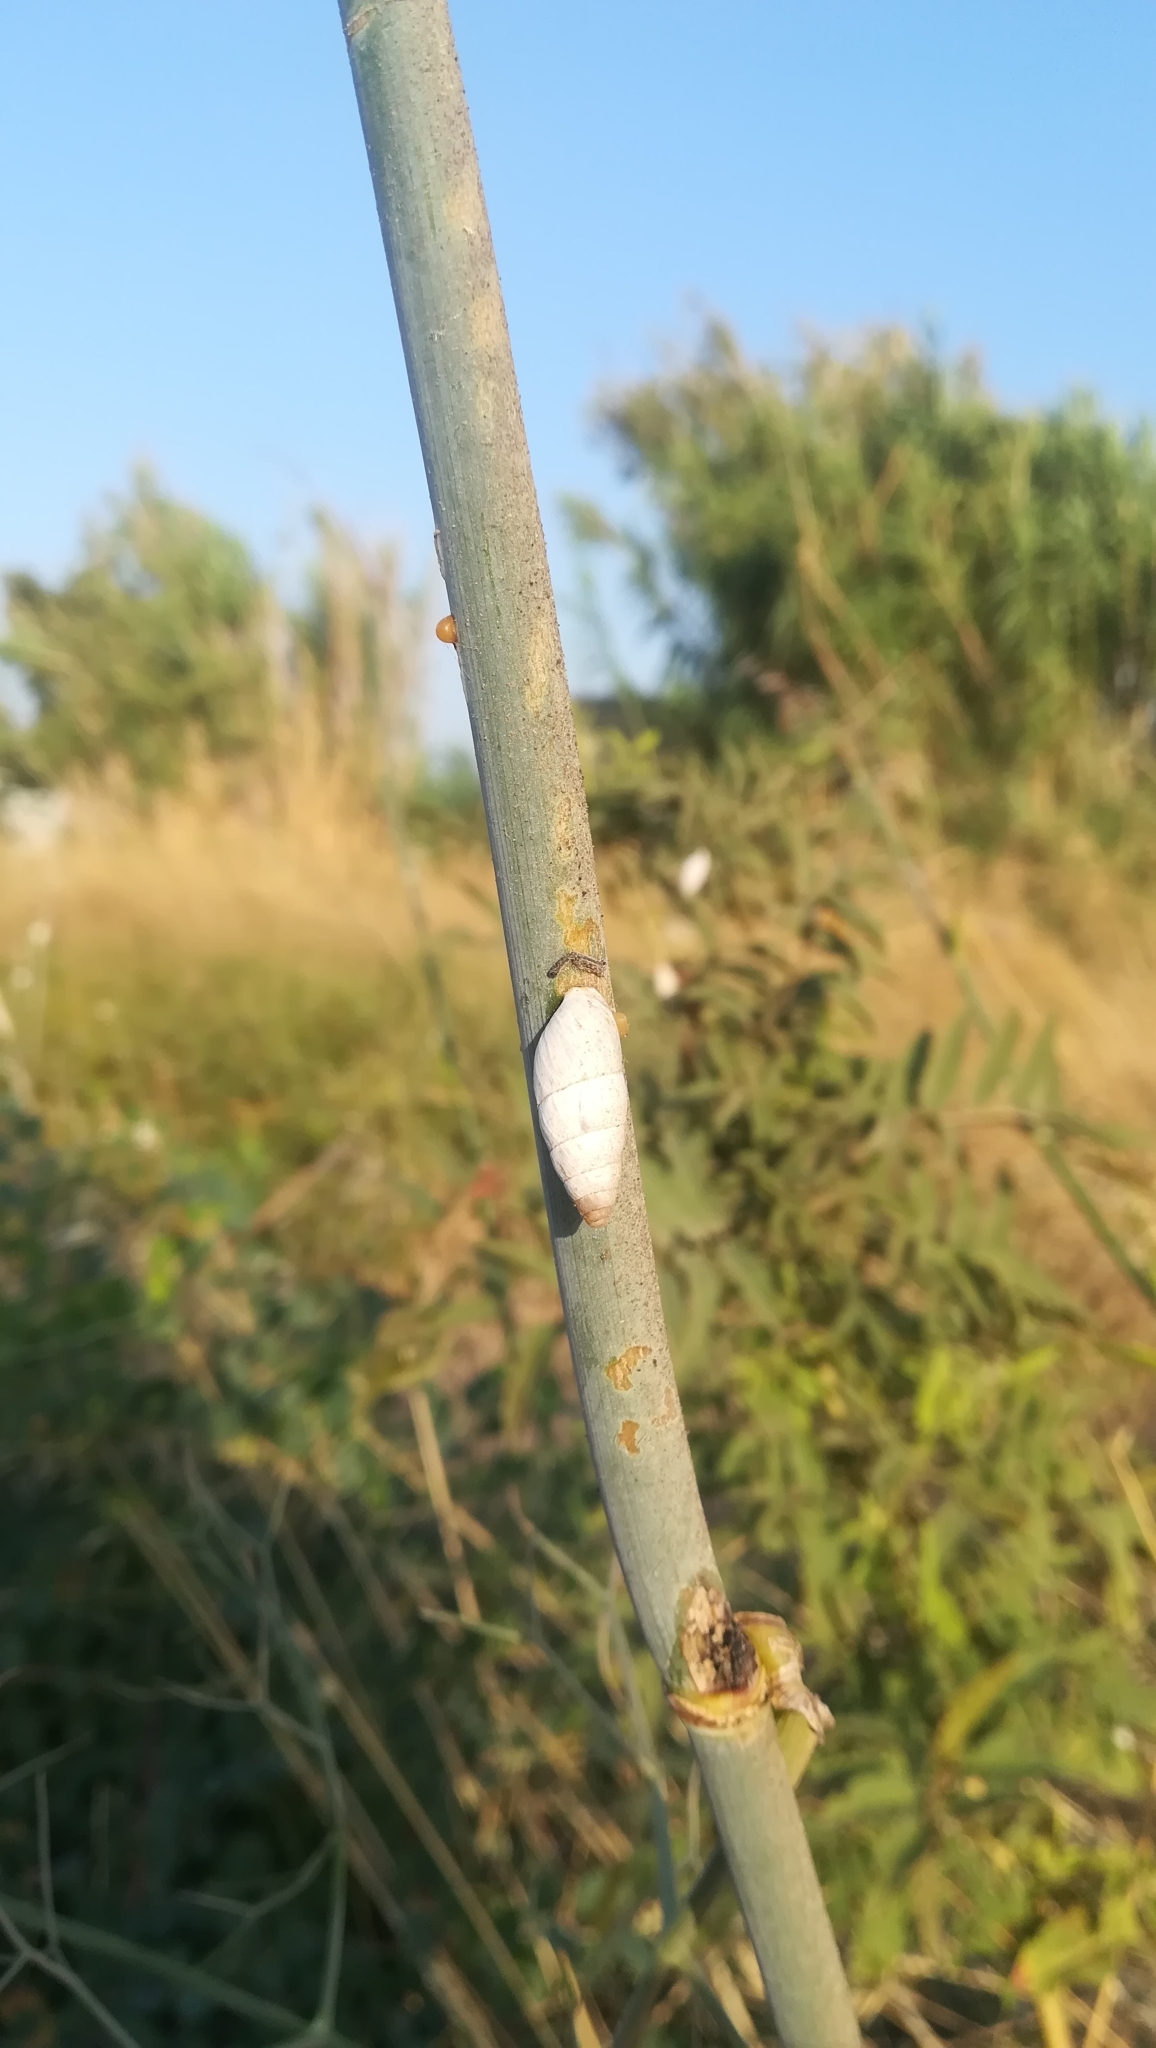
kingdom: Animalia
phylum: Mollusca
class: Gastropoda
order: Stylommatophora
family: Enidae
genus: Zebrina
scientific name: Zebrina fasciolata
